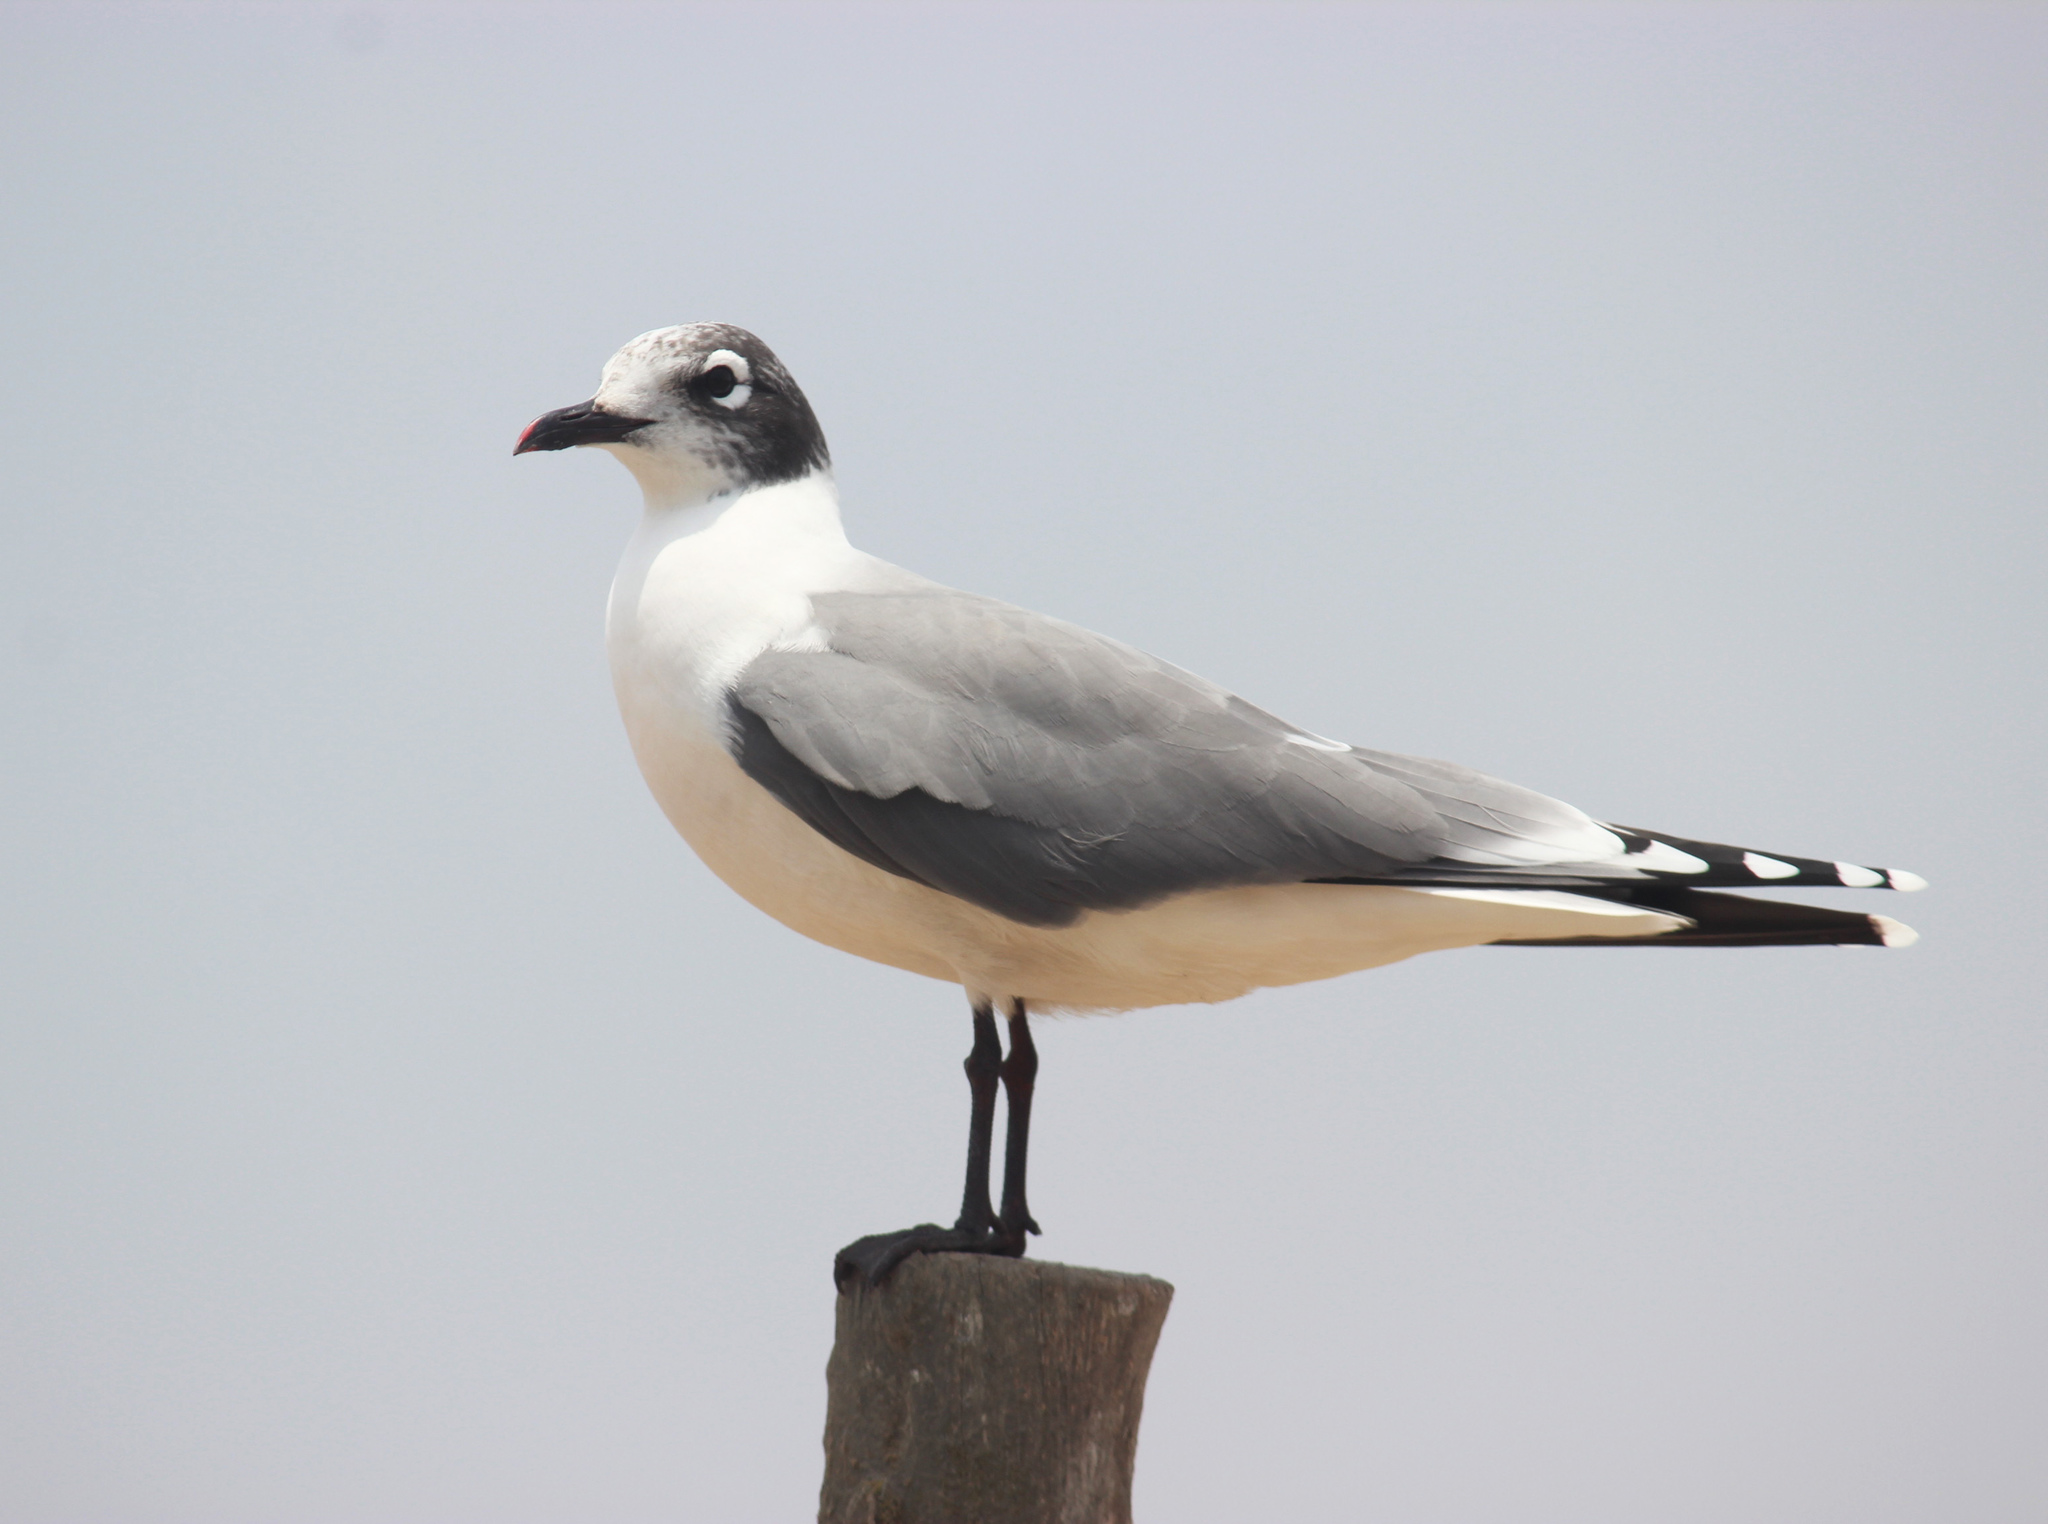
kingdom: Animalia
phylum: Chordata
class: Aves
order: Charadriiformes
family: Laridae
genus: Leucophaeus
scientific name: Leucophaeus pipixcan
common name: Franklin's gull
